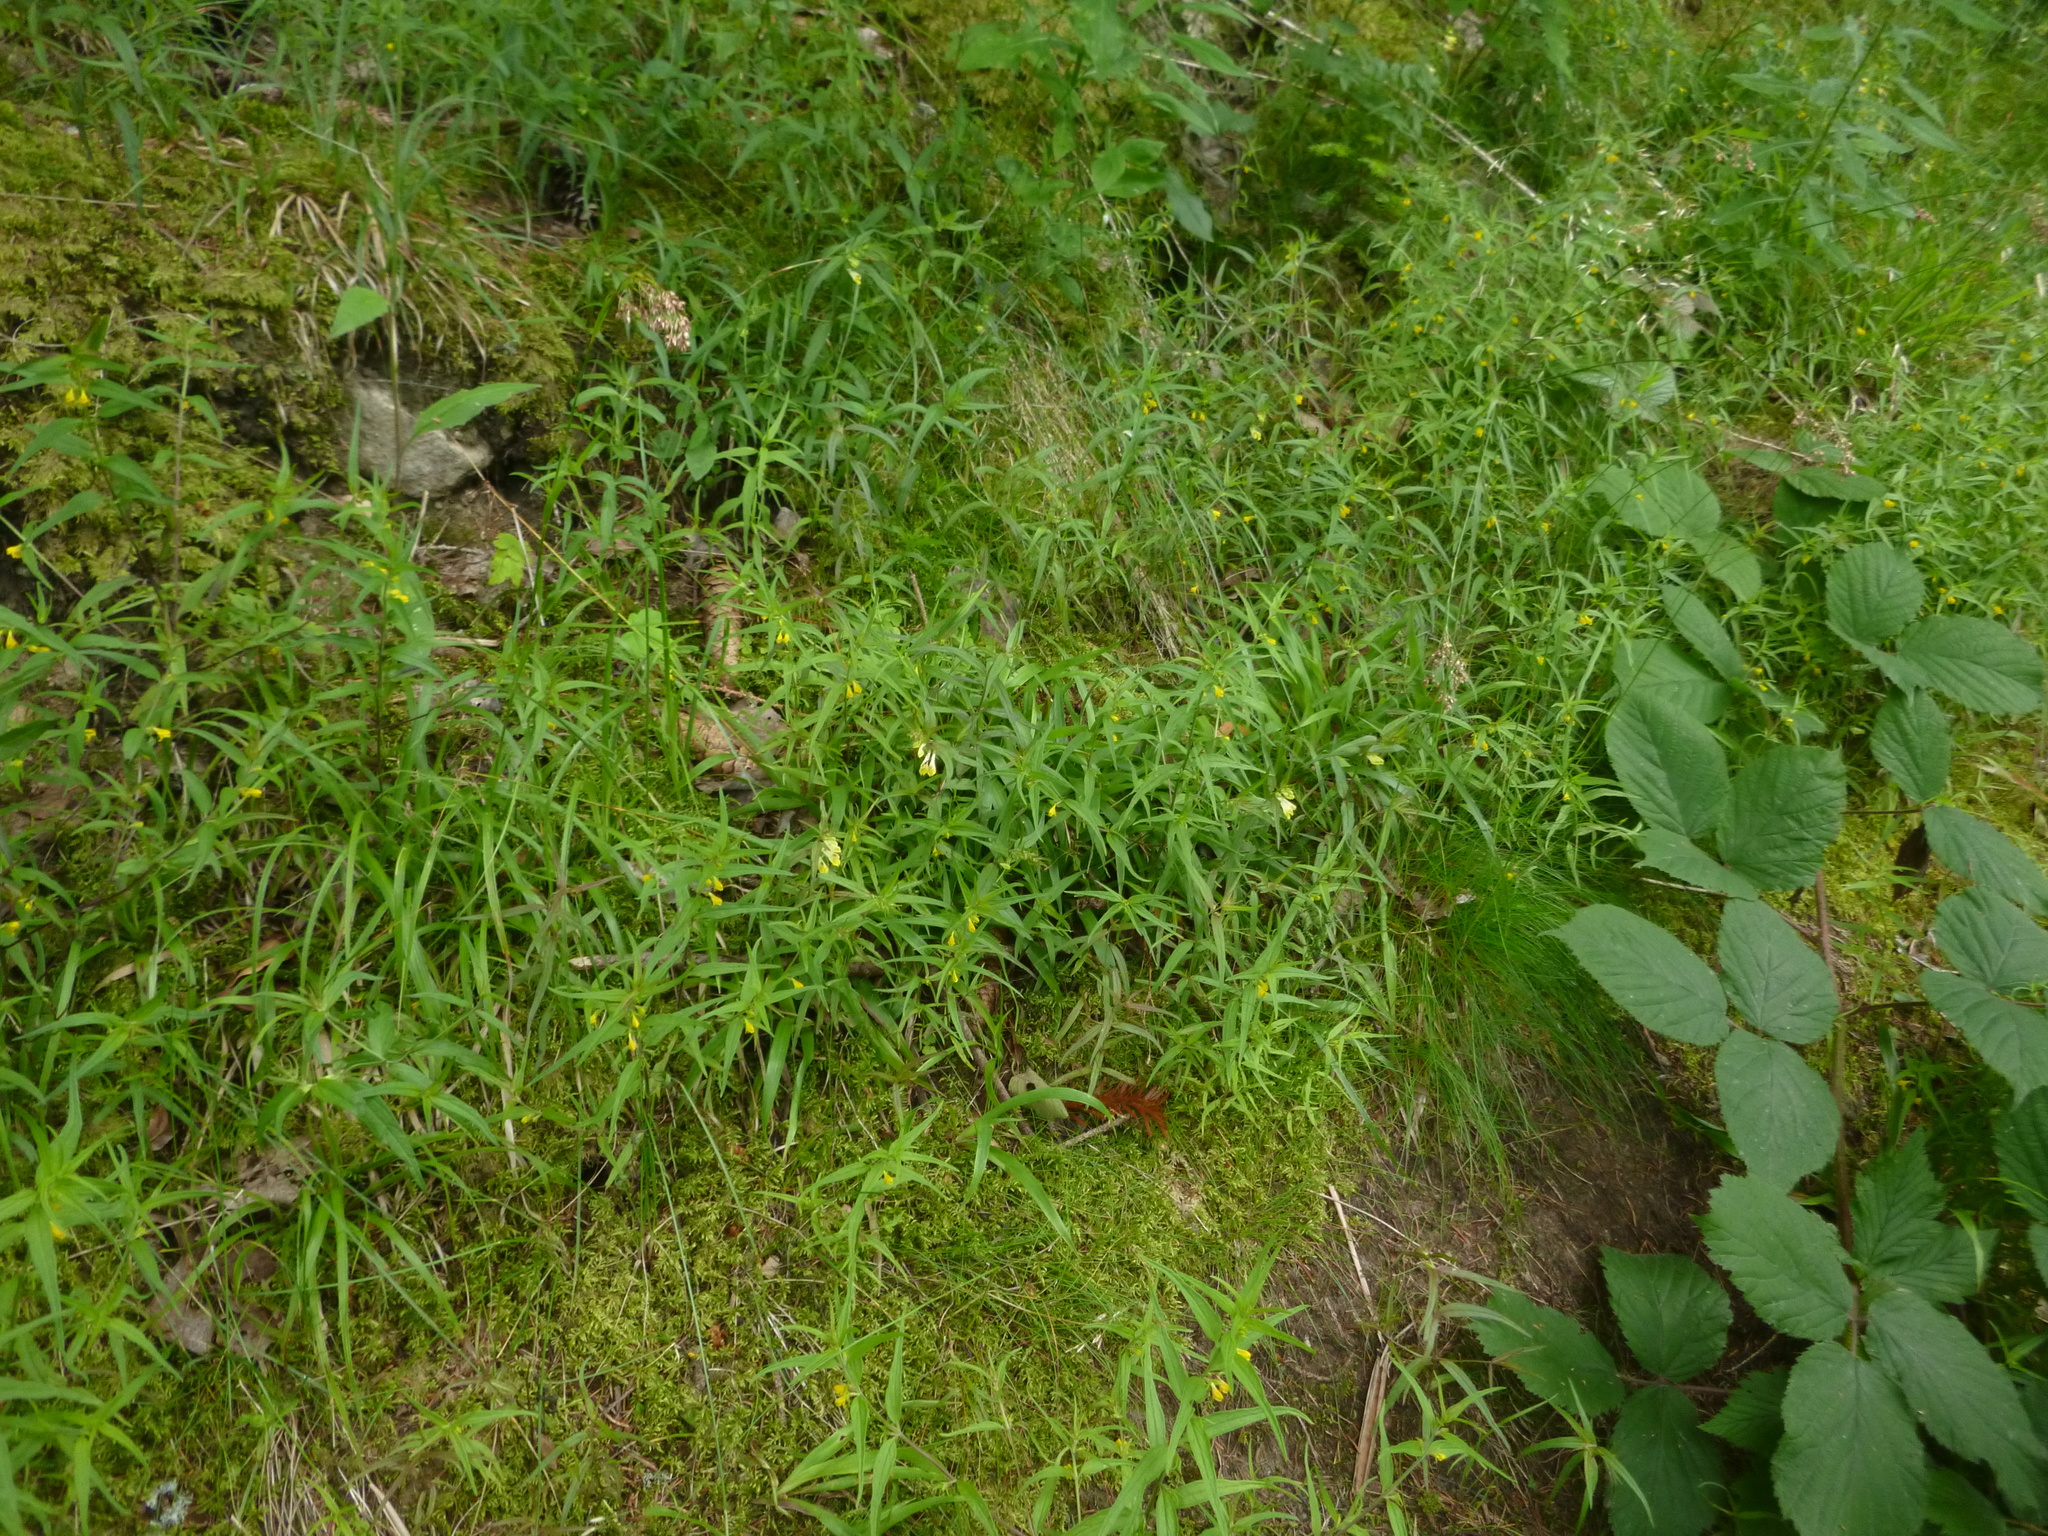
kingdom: Plantae
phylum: Tracheophyta
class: Magnoliopsida
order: Lamiales
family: Orobanchaceae
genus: Melampyrum
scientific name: Melampyrum sylvaticum
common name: Small cow-wheat
